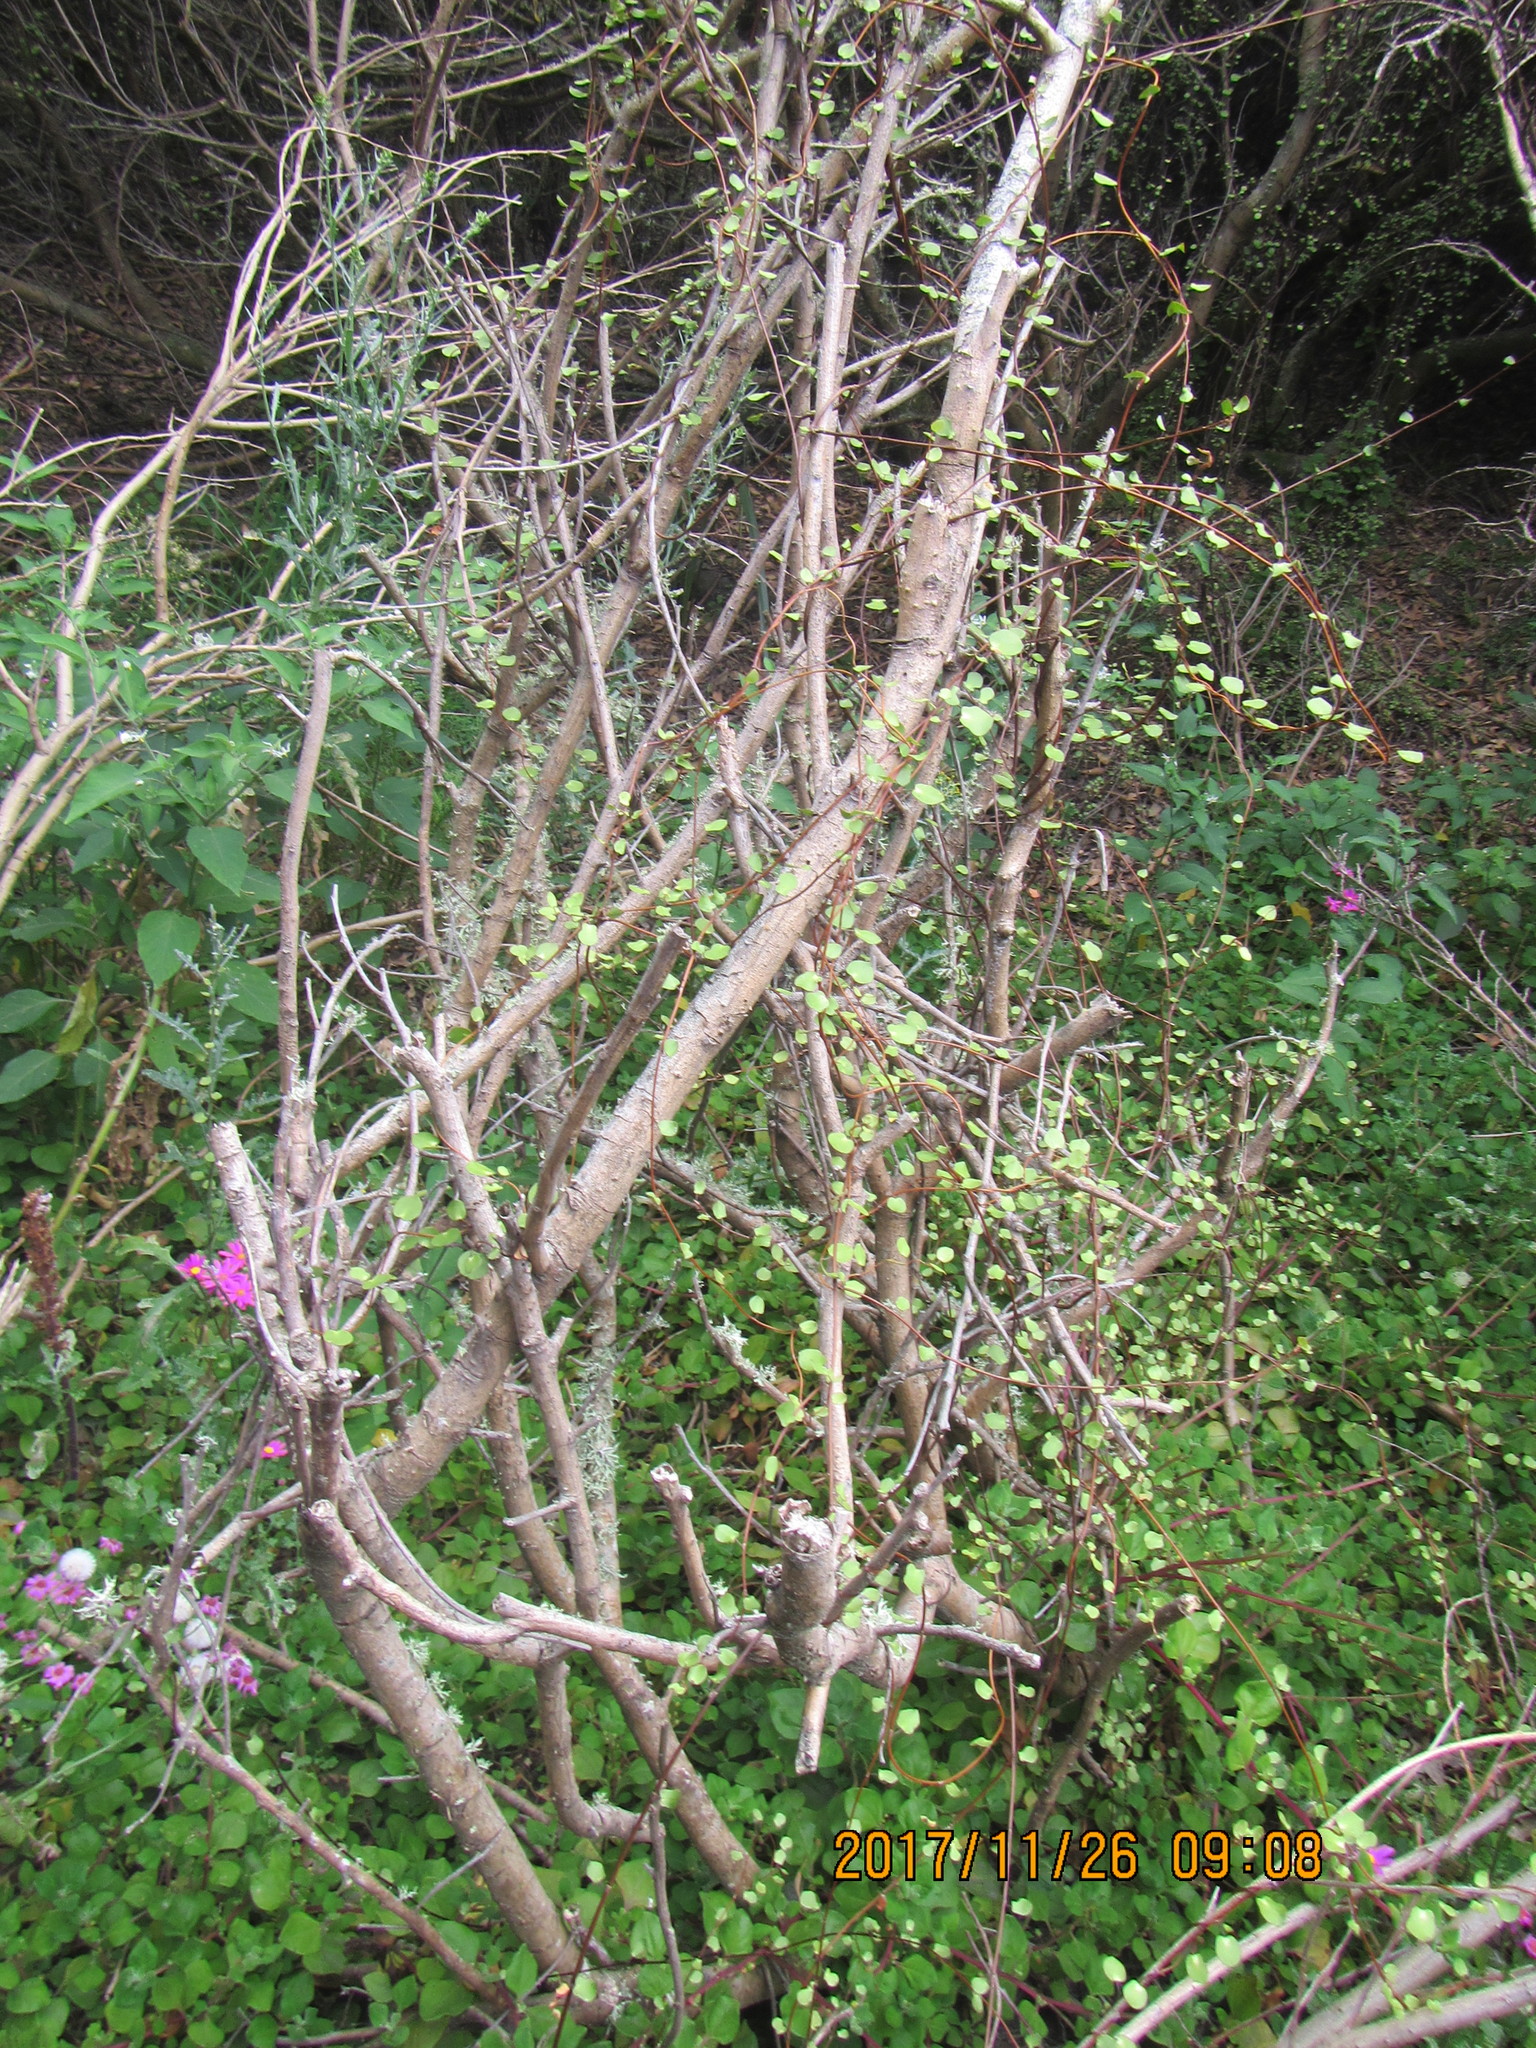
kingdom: Plantae
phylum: Tracheophyta
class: Magnoliopsida
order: Caryophyllales
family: Polygonaceae
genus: Muehlenbeckia
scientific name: Muehlenbeckia complexa
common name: Wireplant
